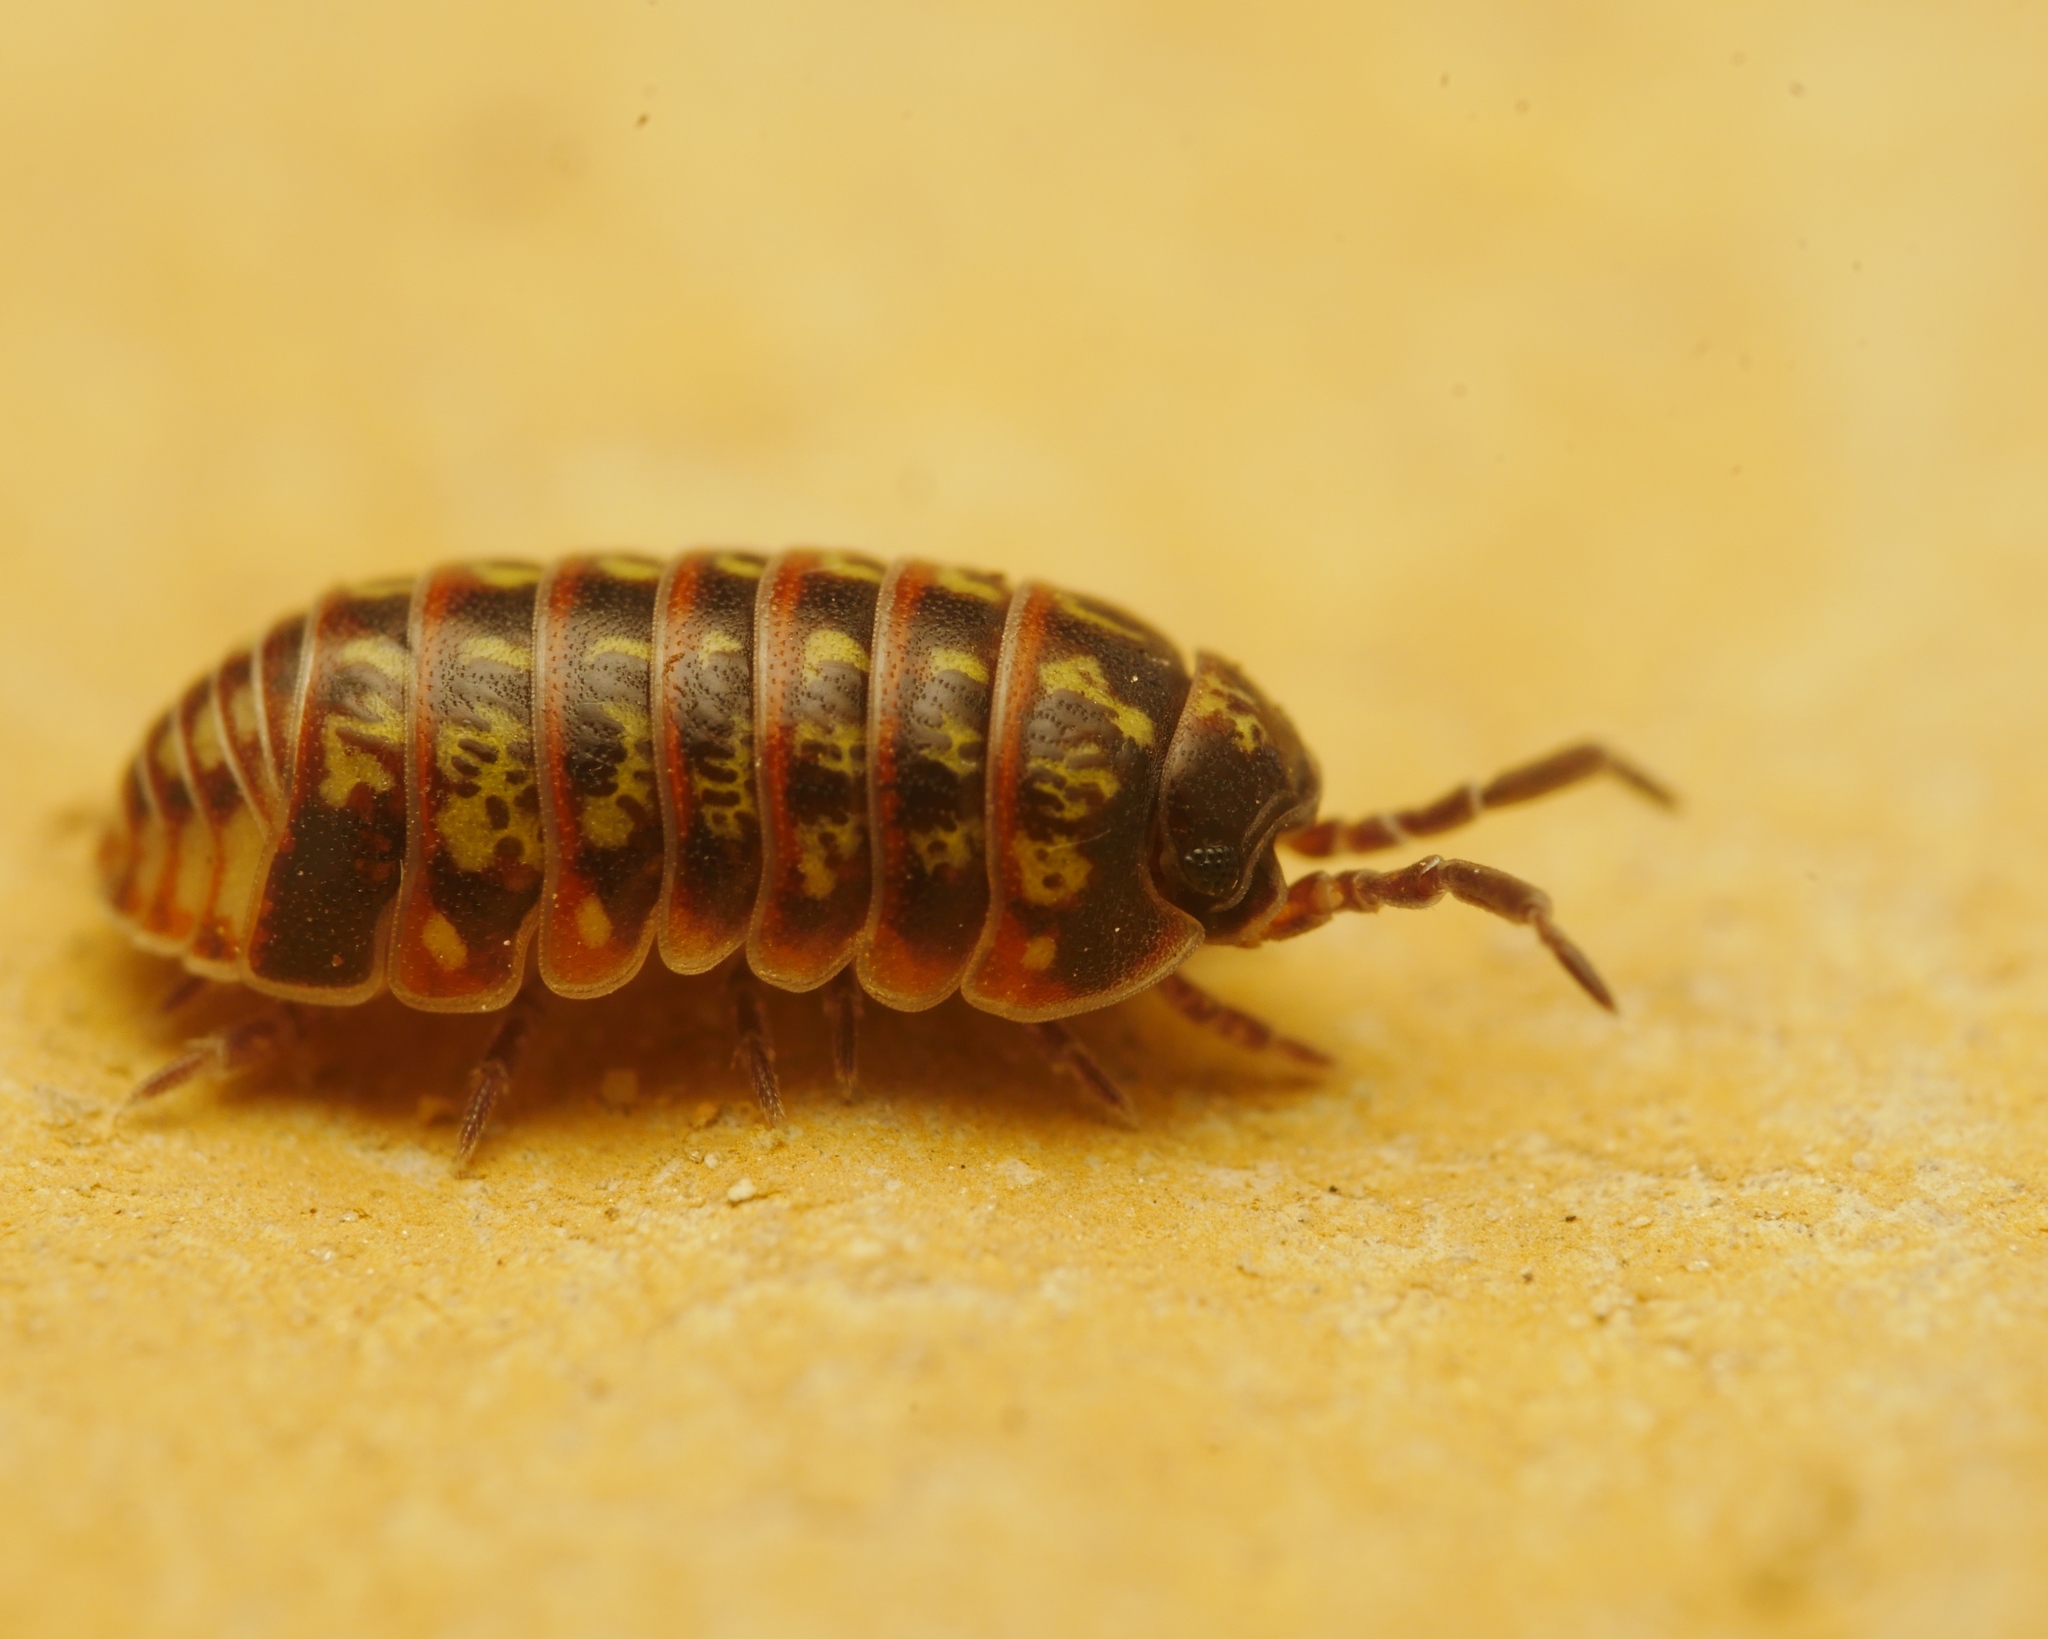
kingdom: Animalia
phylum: Arthropoda
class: Malacostraca
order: Isopoda
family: Armadillidiidae
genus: Armadillidium
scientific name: Armadillidium pulchellum
